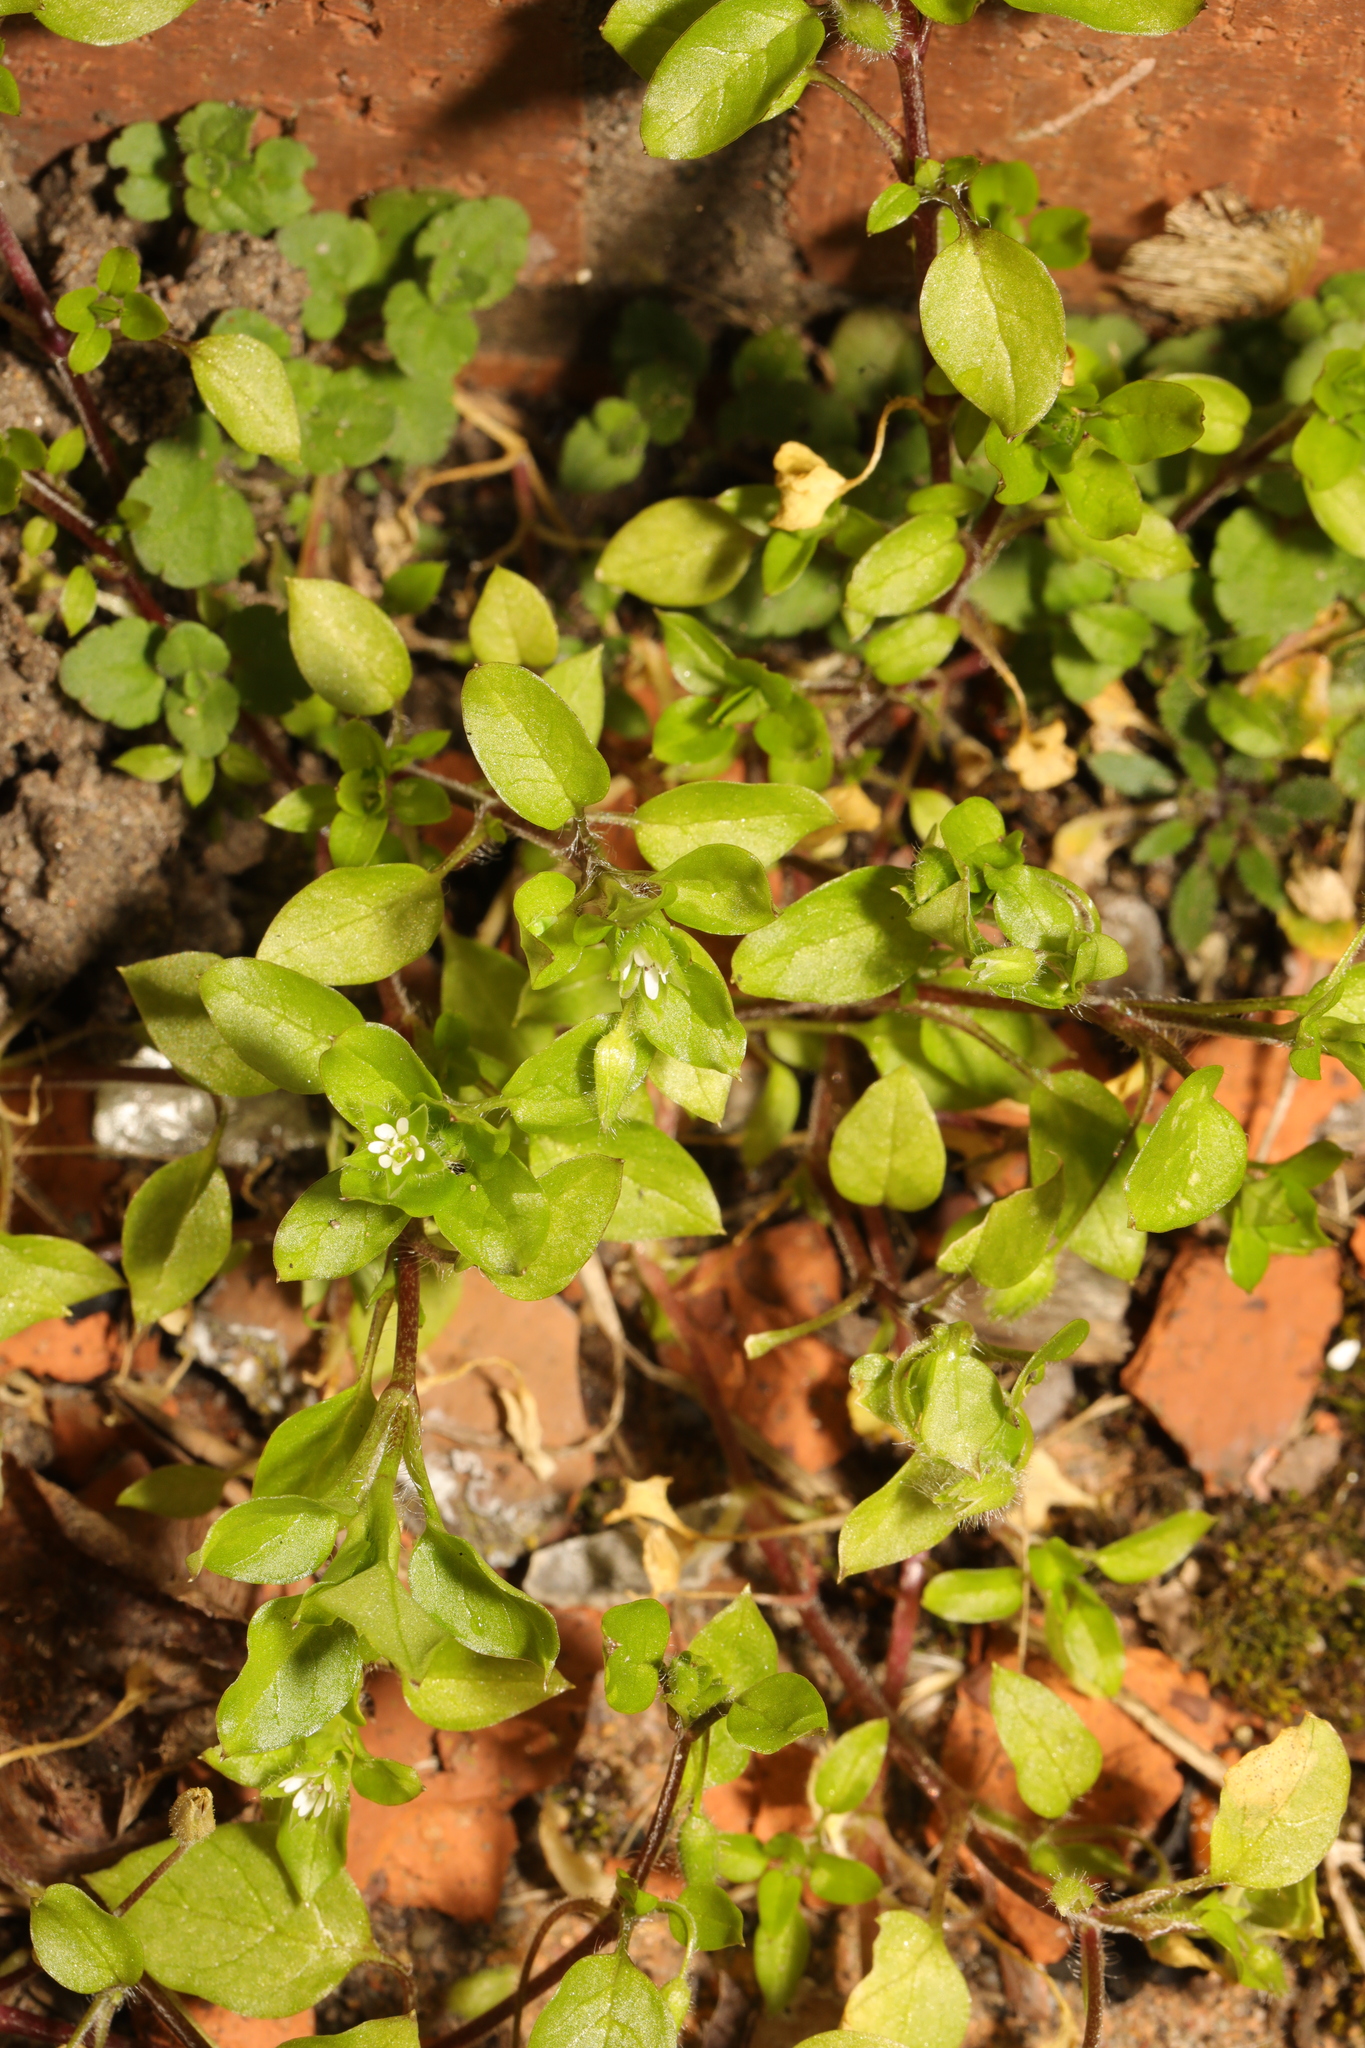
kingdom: Plantae
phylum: Tracheophyta
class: Magnoliopsida
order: Caryophyllales
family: Caryophyllaceae
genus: Stellaria
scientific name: Stellaria media
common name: Common chickweed
